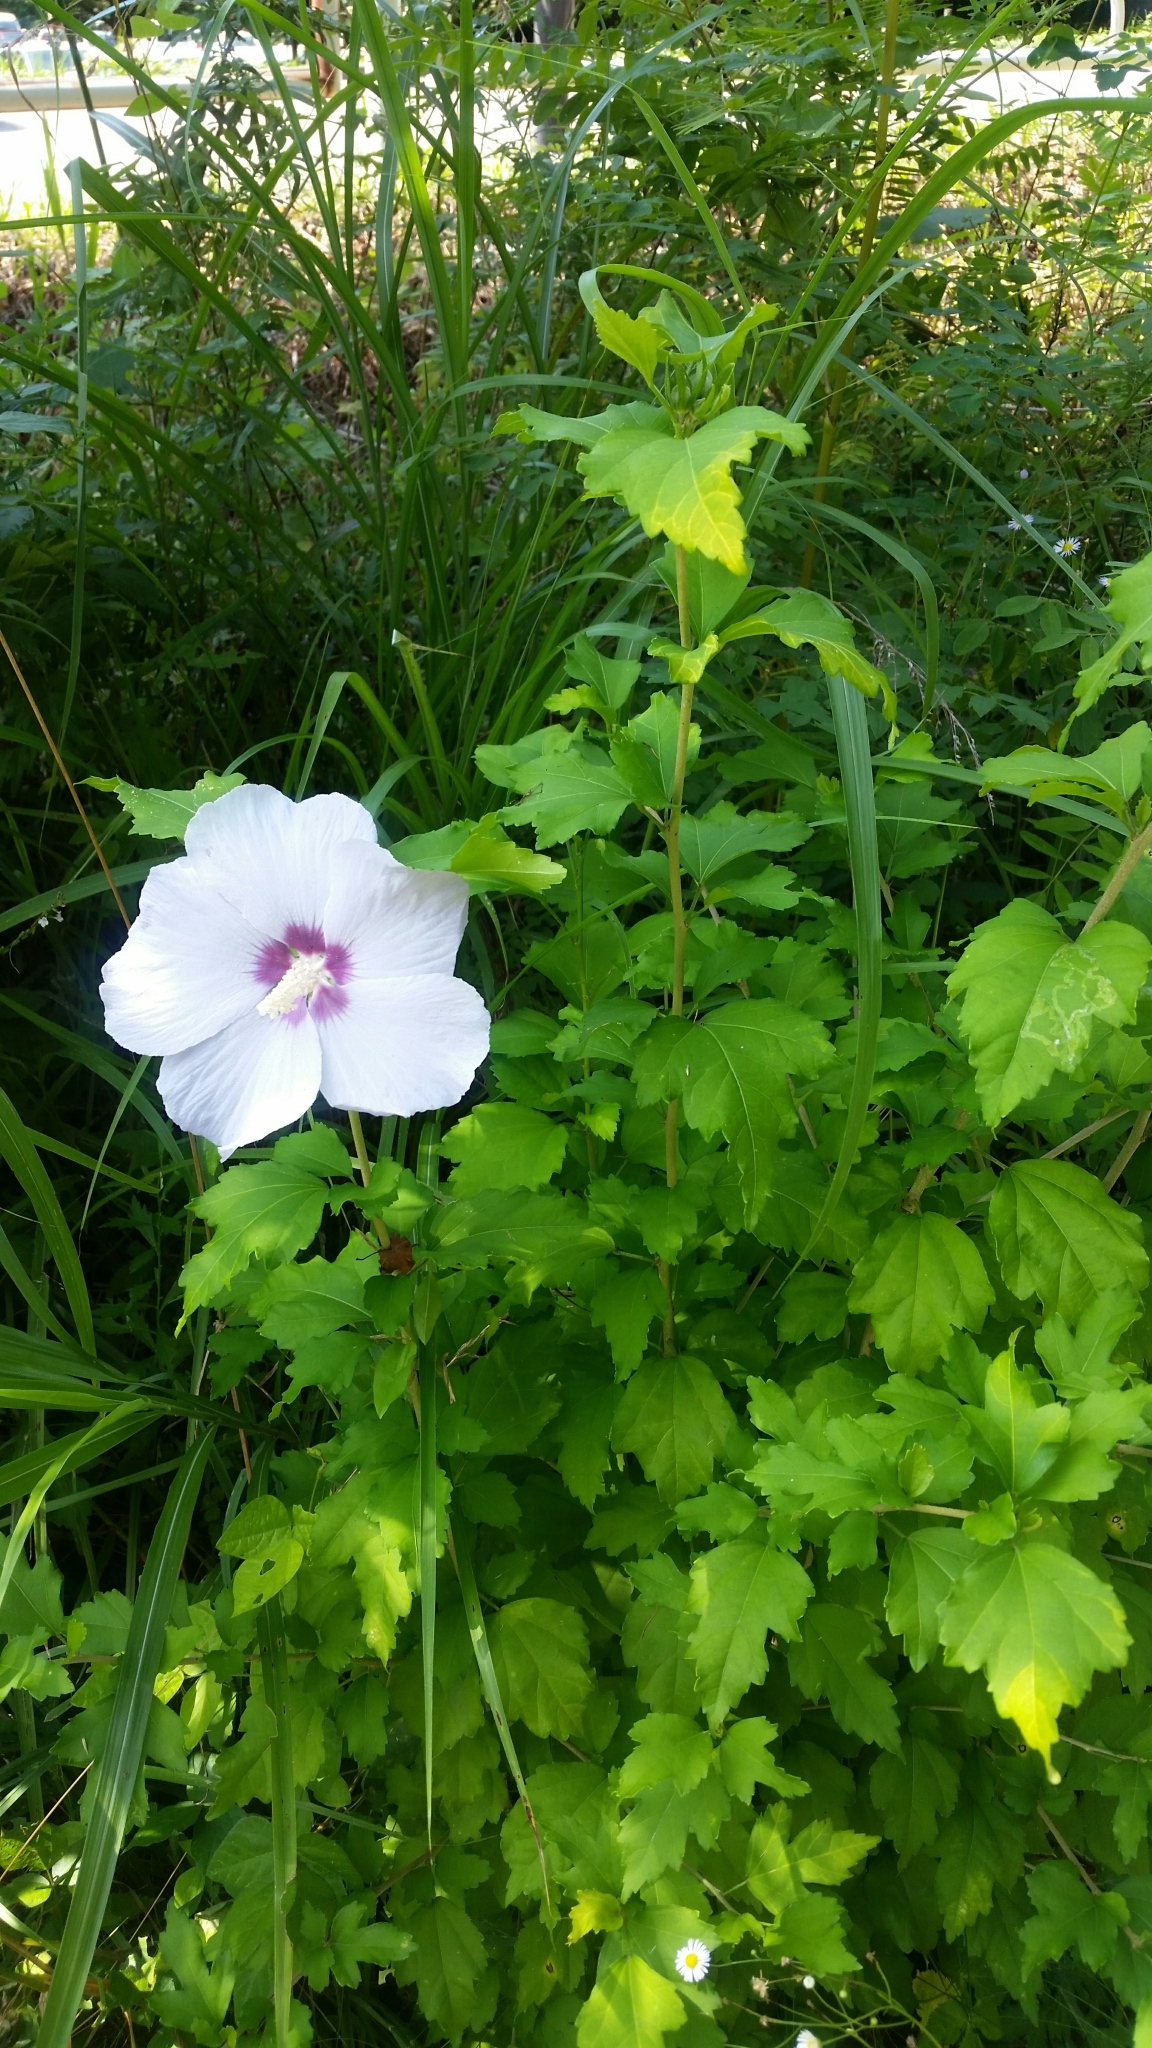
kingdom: Plantae
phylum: Tracheophyta
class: Magnoliopsida
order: Malvales
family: Malvaceae
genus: Hibiscus
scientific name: Hibiscus syriacus
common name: Syrian ketmia
